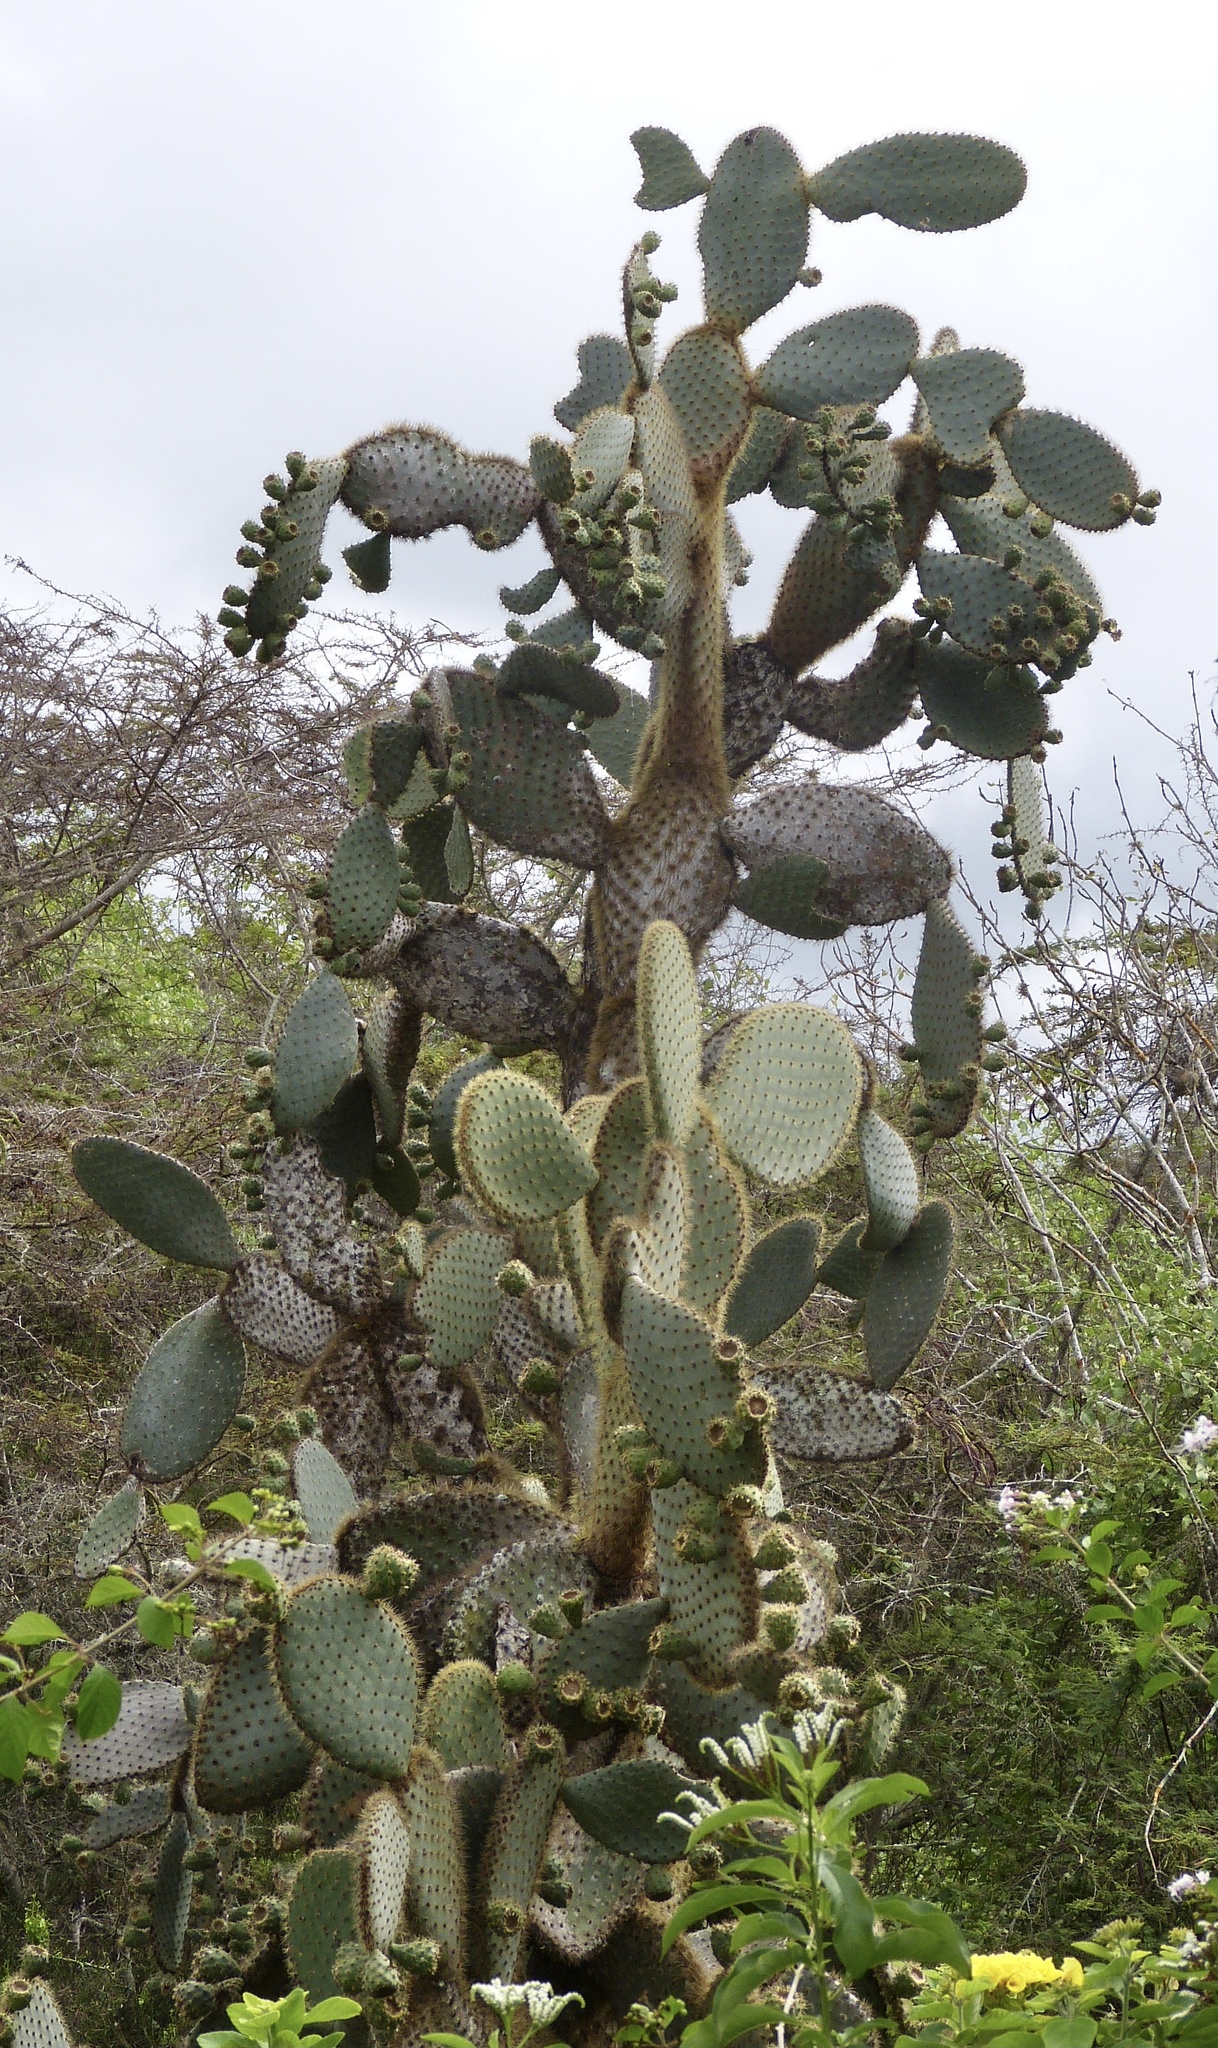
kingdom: Plantae
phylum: Tracheophyta
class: Magnoliopsida
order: Caryophyllales
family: Cactaceae
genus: Opuntia
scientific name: Opuntia galapageia
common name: Galápagos prickly pear
